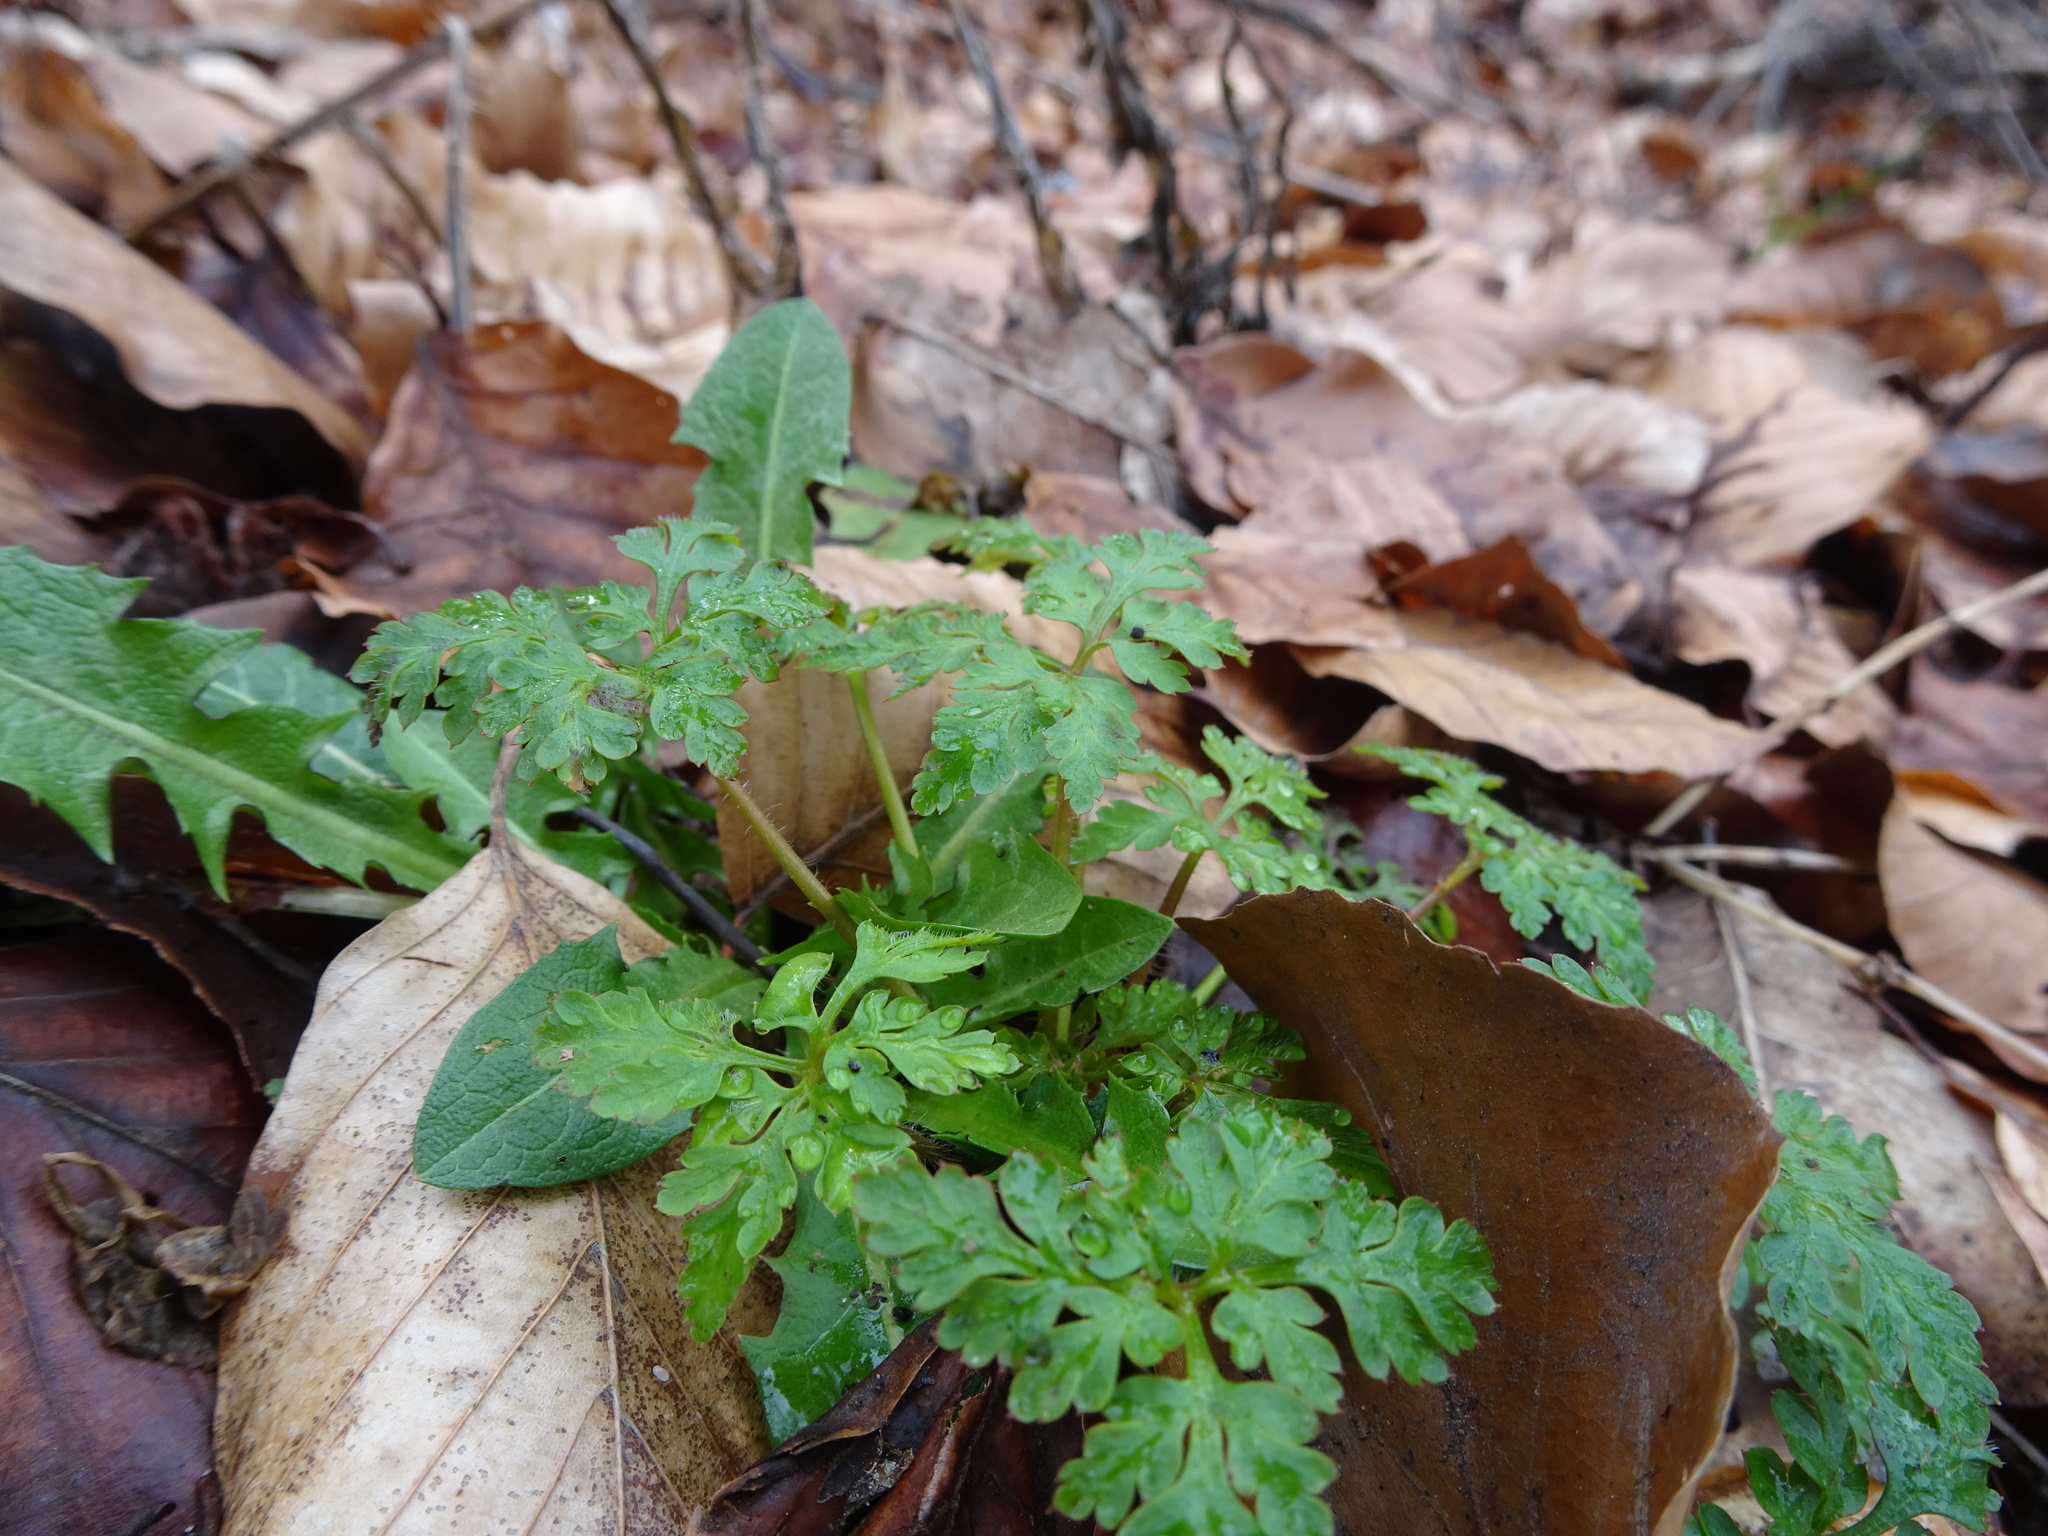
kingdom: Plantae
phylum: Tracheophyta
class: Magnoliopsida
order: Geraniales
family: Geraniaceae
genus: Geranium
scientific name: Geranium robertianum
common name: Herb-robert
